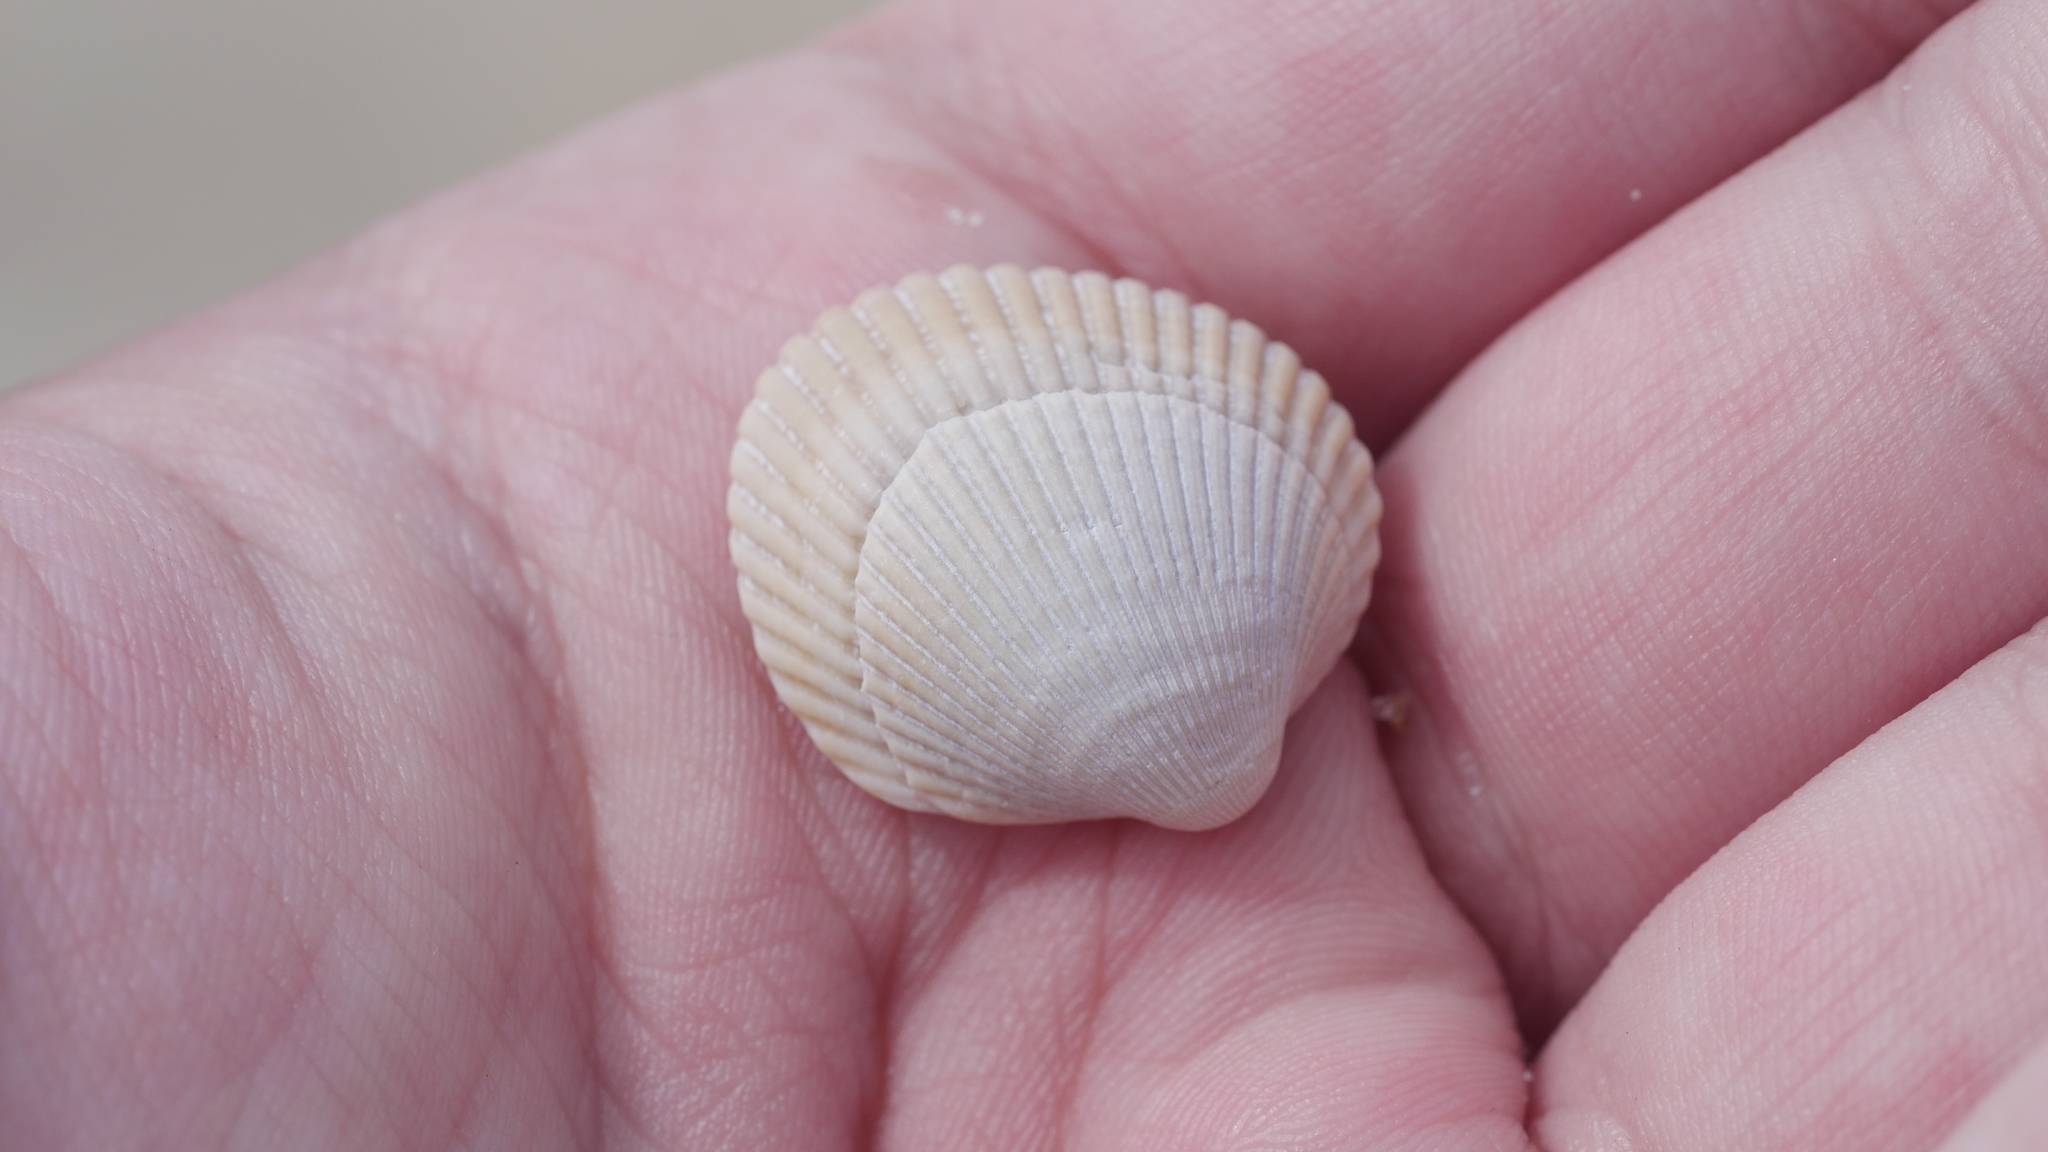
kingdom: Animalia
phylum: Mollusca
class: Bivalvia
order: Arcida
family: Arcidae
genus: Lunarca
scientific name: Lunarca ovalis
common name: Blood ark
